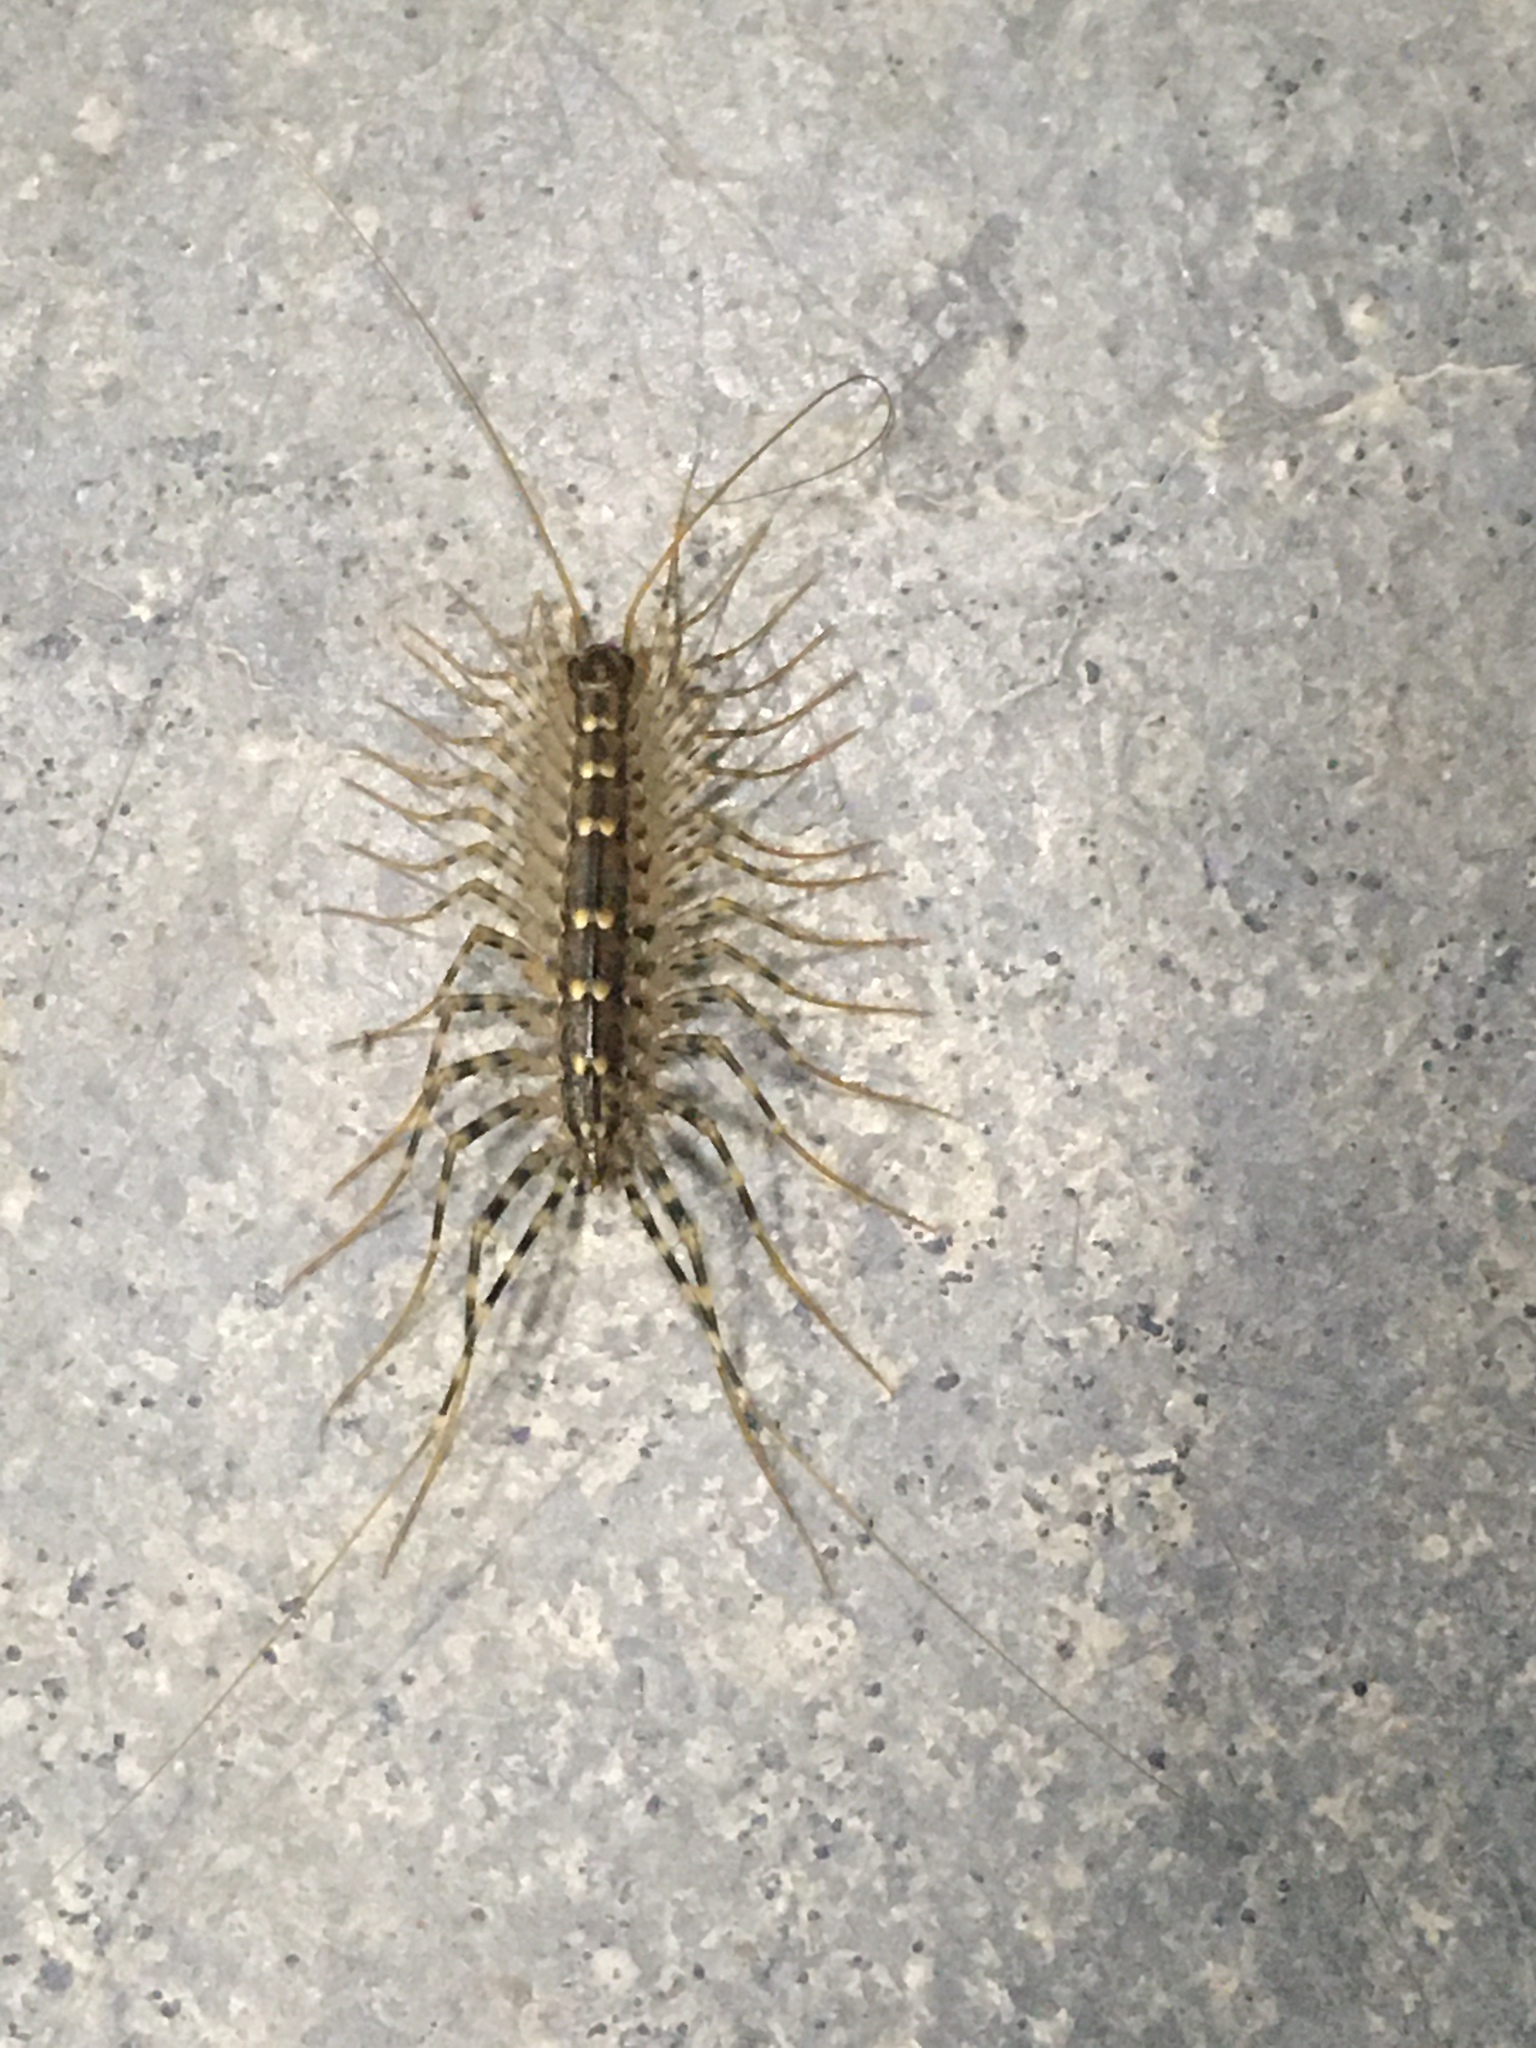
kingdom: Animalia
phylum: Arthropoda
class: Chilopoda
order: Scutigeromorpha
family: Scutigeridae
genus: Scutigera
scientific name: Scutigera coleoptrata
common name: House centipede
